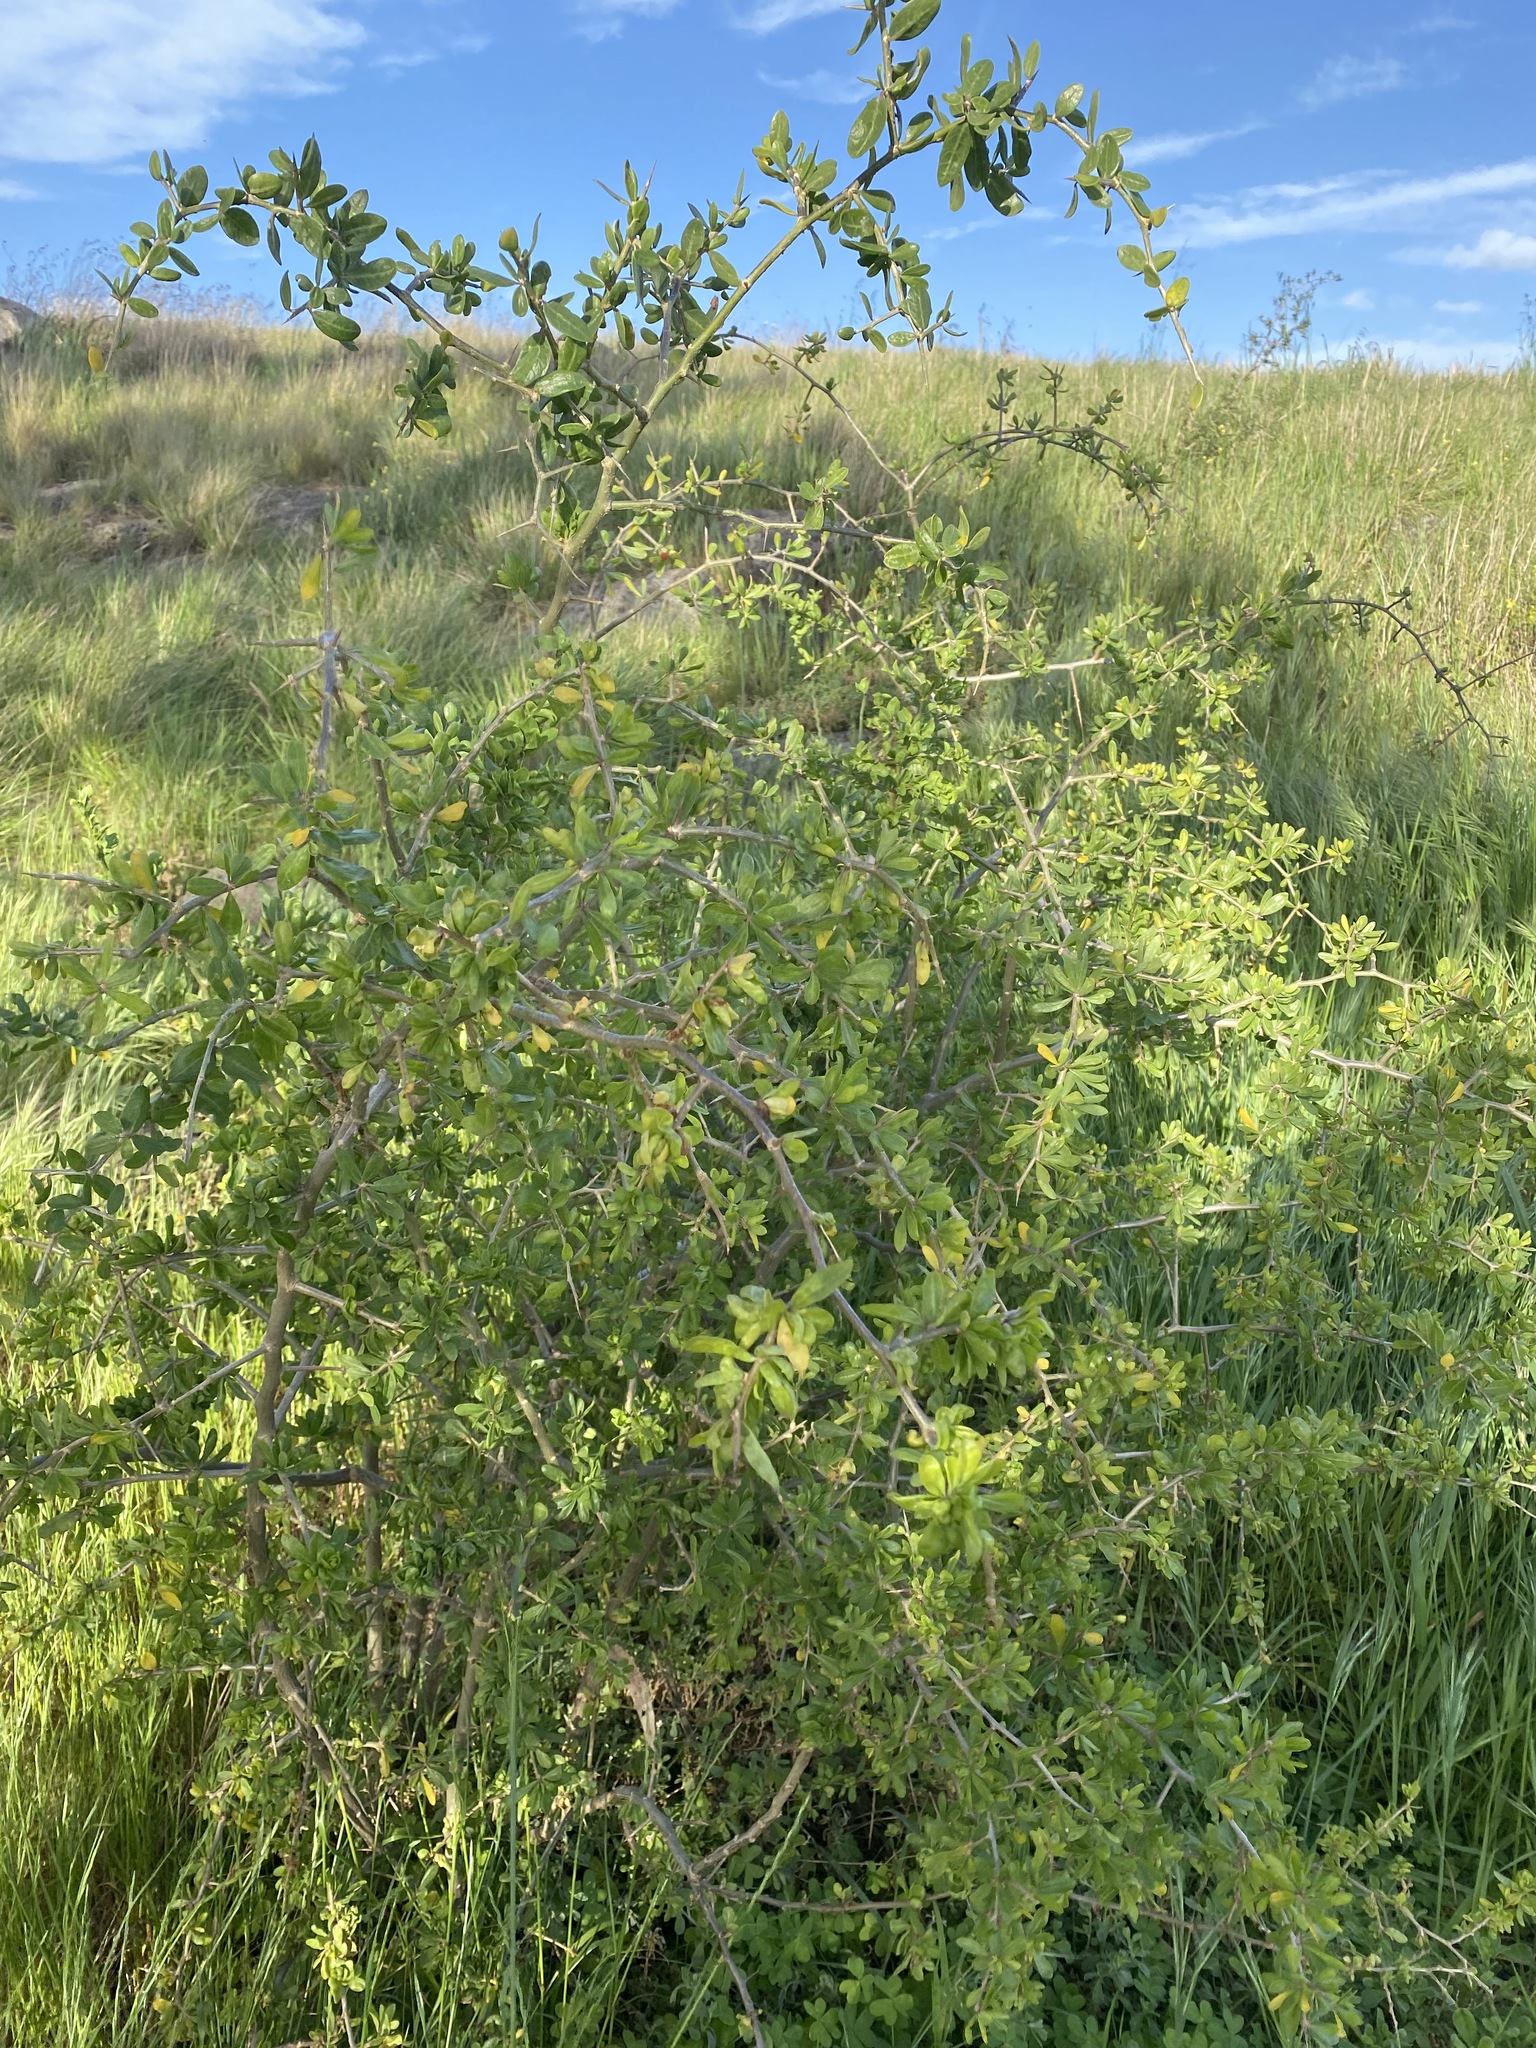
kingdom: Plantae
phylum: Tracheophyta
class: Magnoliopsida
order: Solanales
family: Solanaceae
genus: Lycium
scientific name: Lycium ferocissimum
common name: African boxthorn
